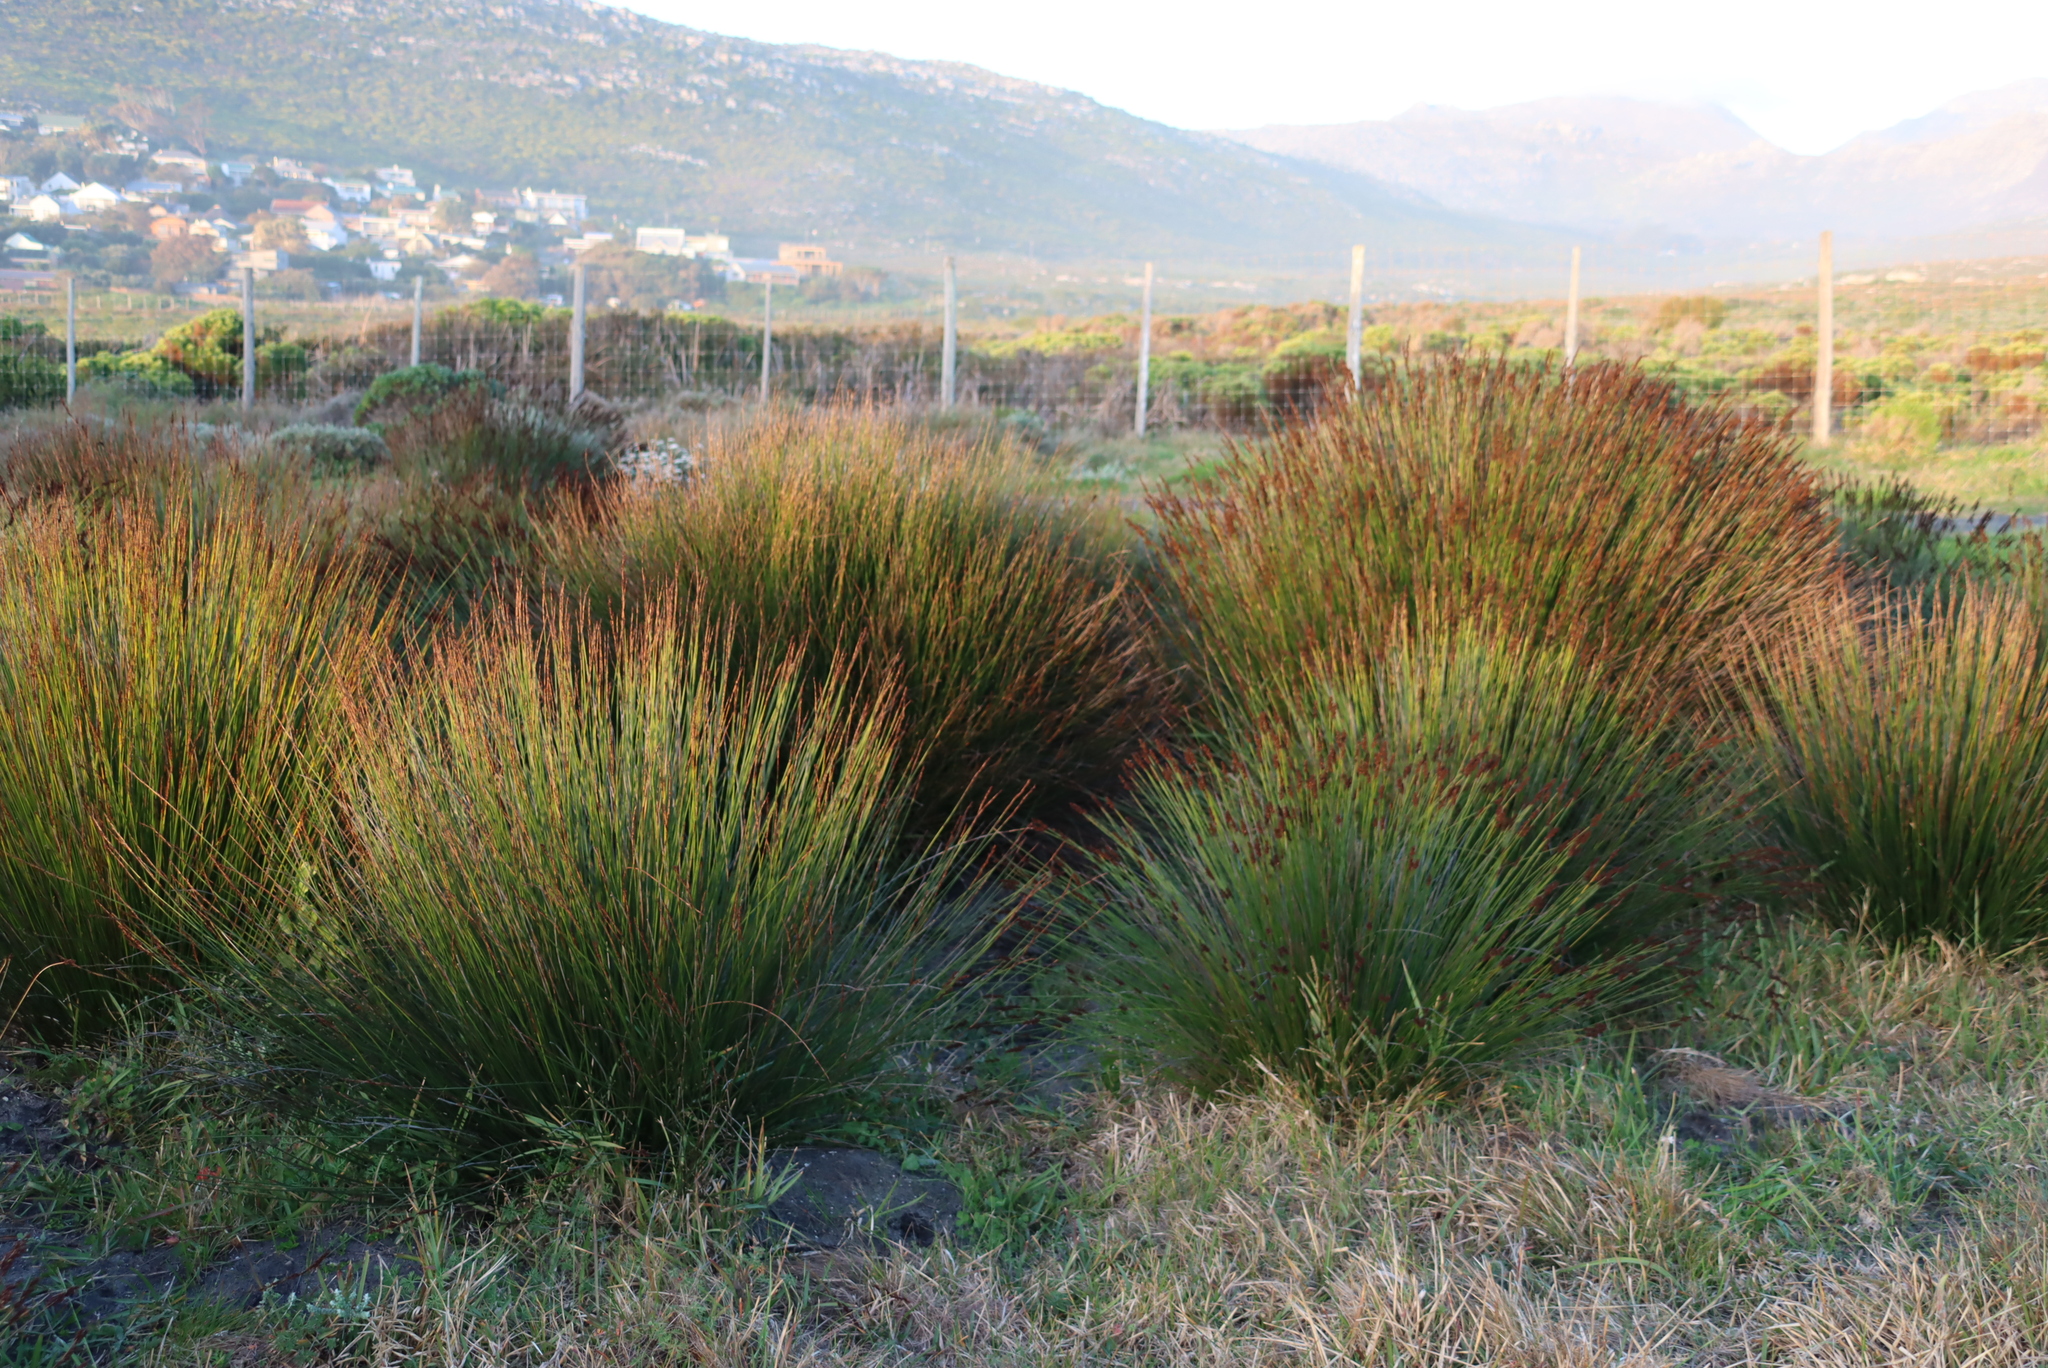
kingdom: Plantae
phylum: Tracheophyta
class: Liliopsida
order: Poales
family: Restionaceae
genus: Elegia
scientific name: Elegia tectorum
